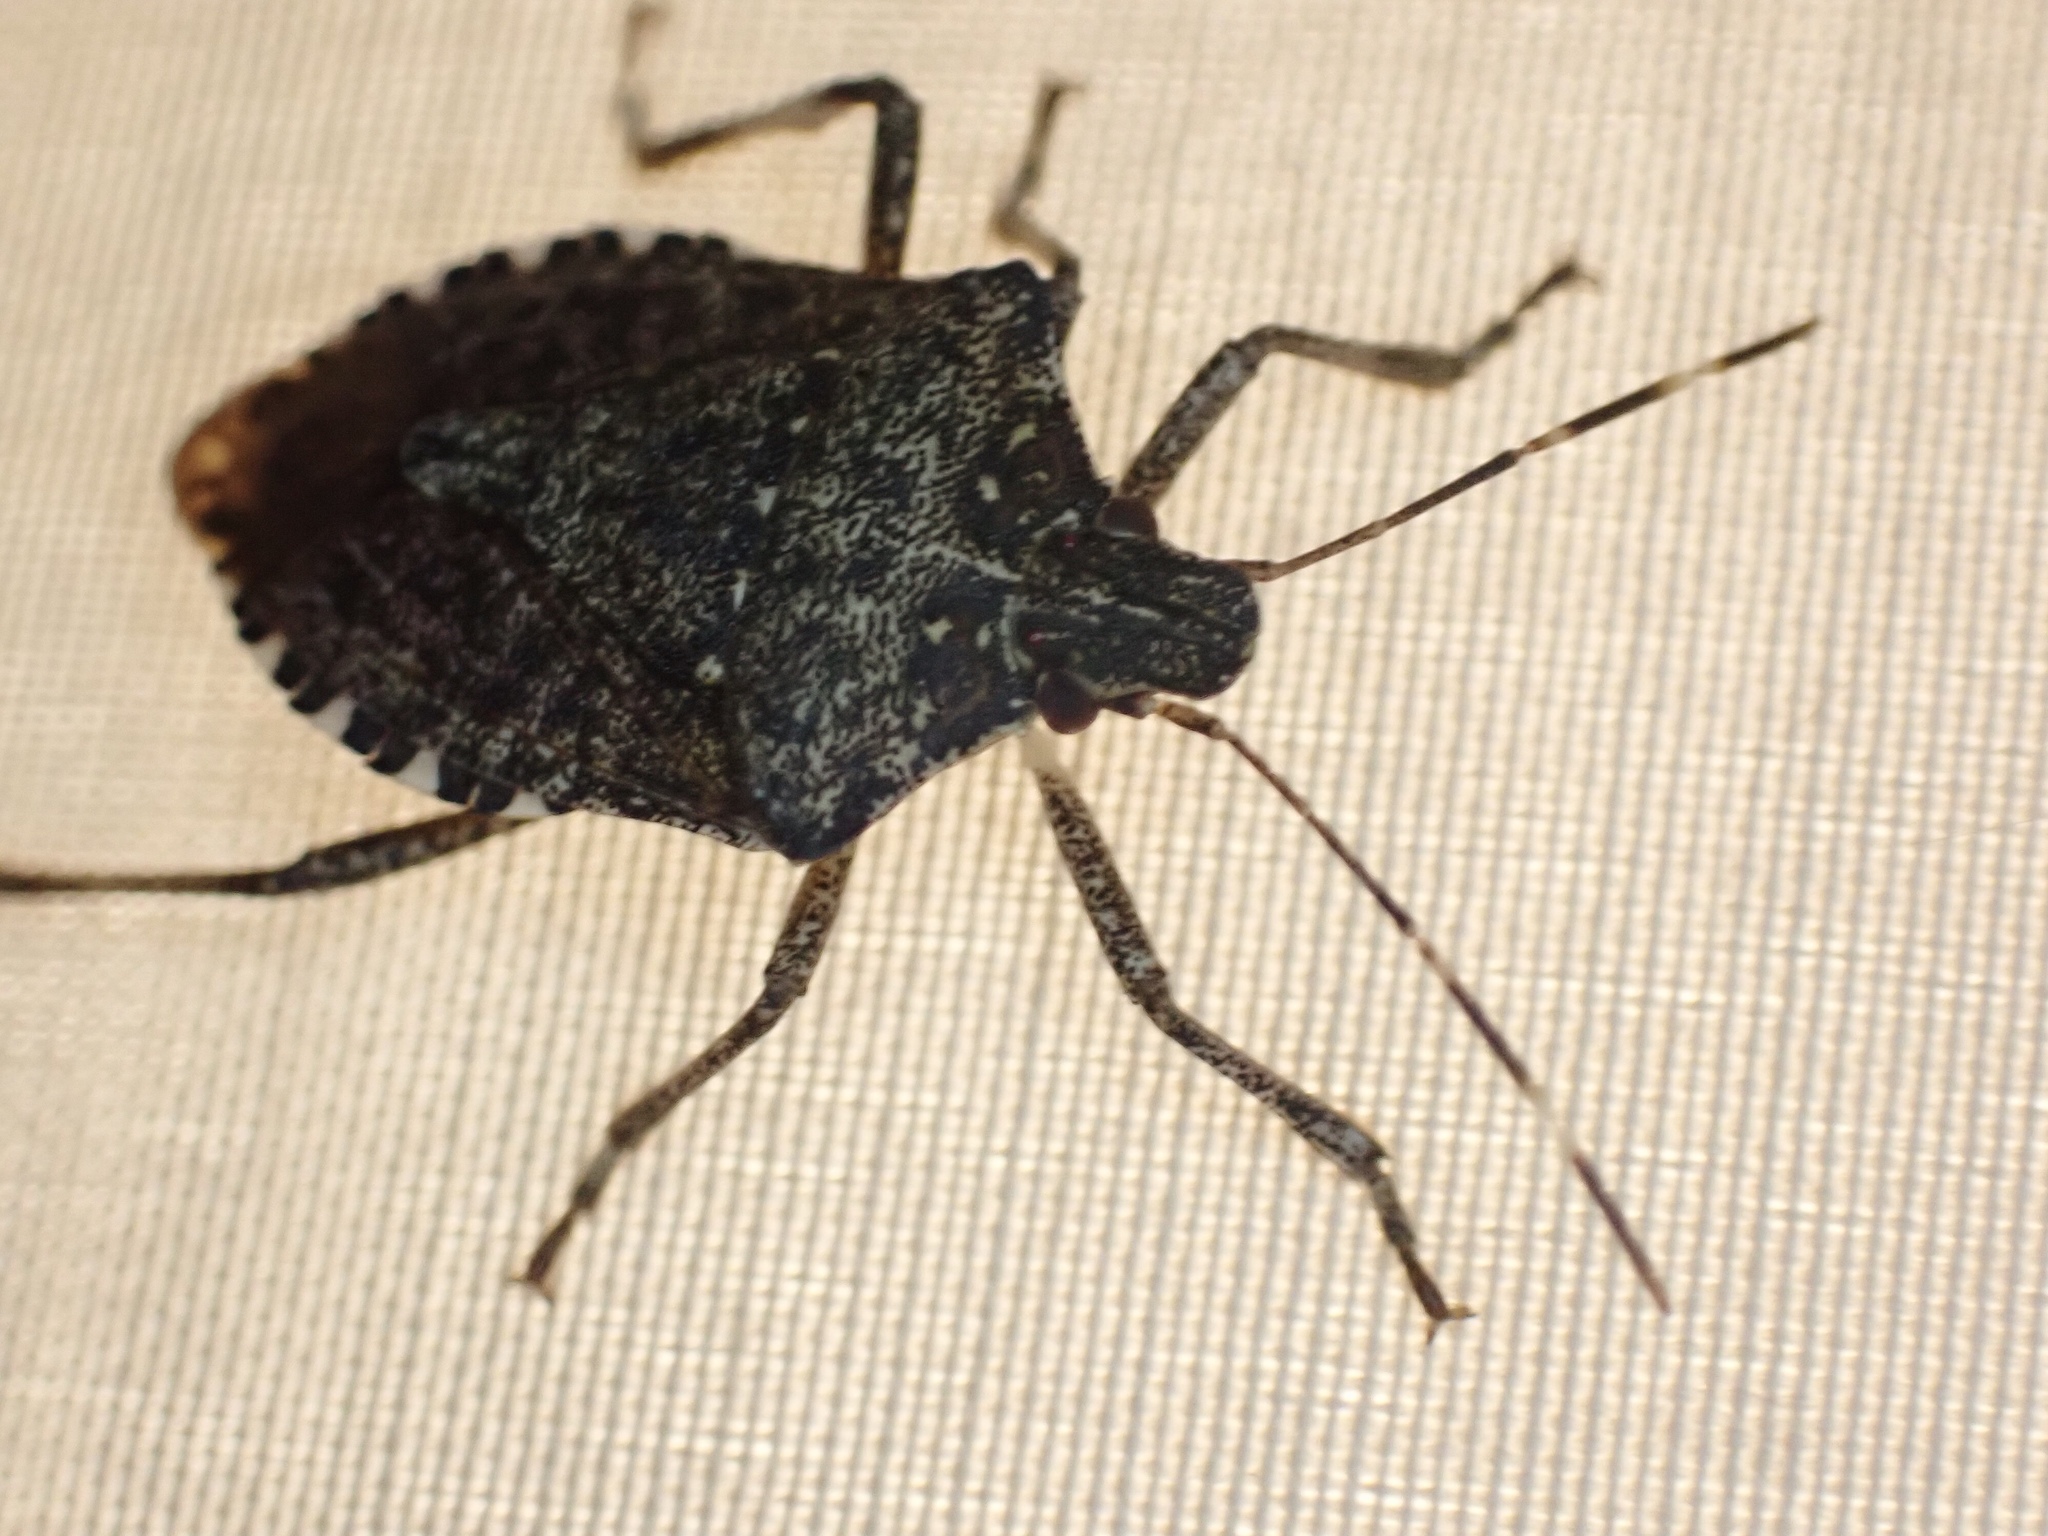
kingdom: Animalia
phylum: Arthropoda
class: Insecta
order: Hemiptera
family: Pentatomidae
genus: Halyomorpha
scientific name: Halyomorpha halys
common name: Brown marmorated stink bug
